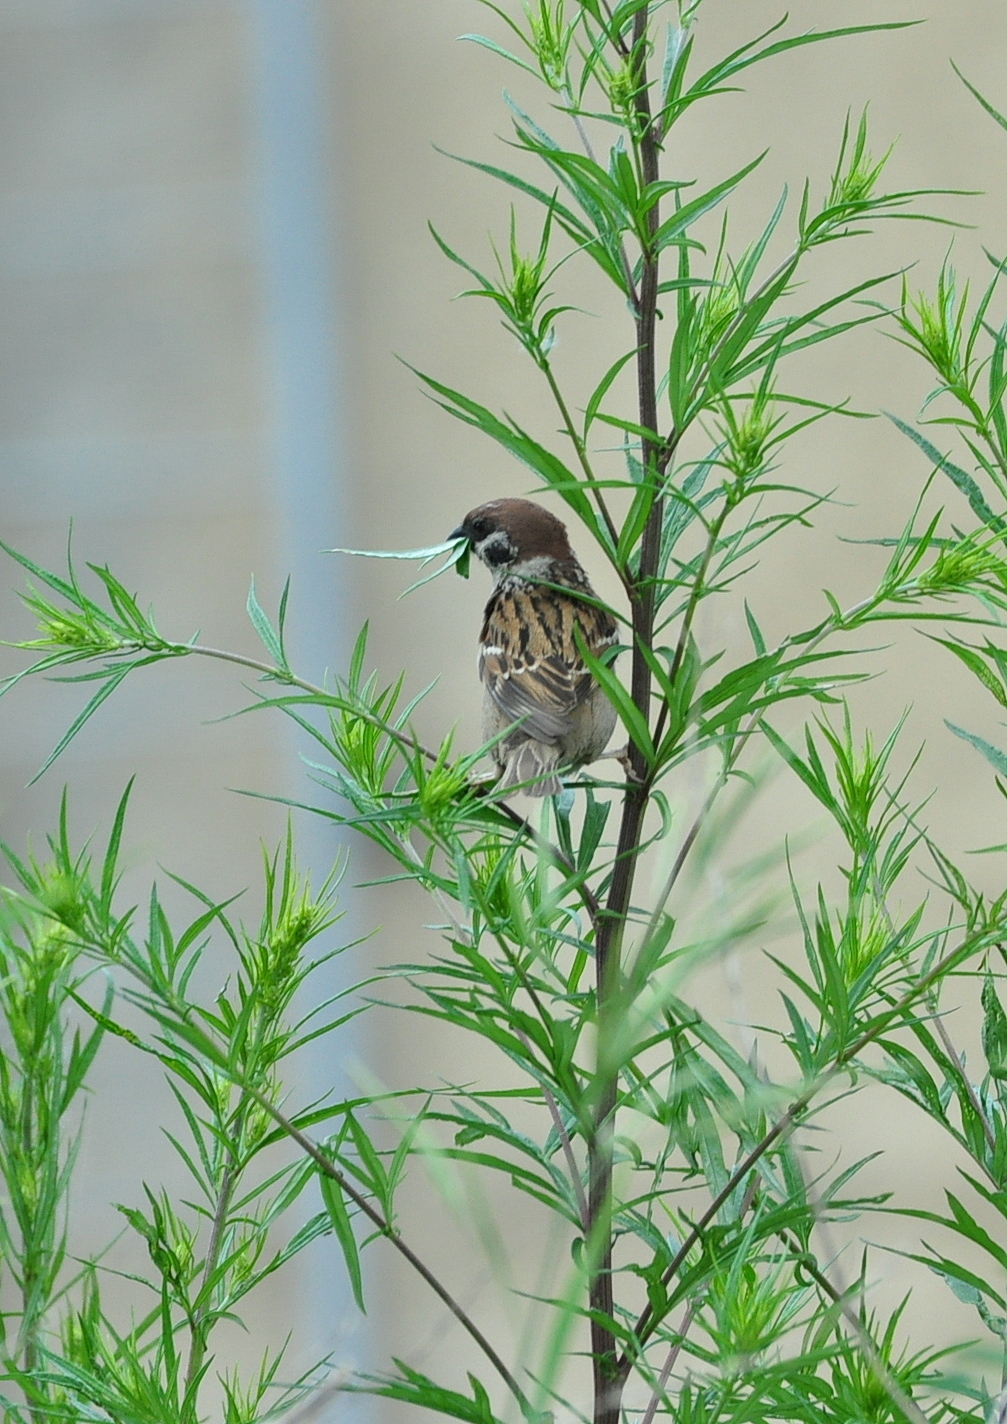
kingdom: Animalia
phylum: Chordata
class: Aves
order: Passeriformes
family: Passeridae
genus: Passer
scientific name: Passer montanus
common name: Eurasian tree sparrow
